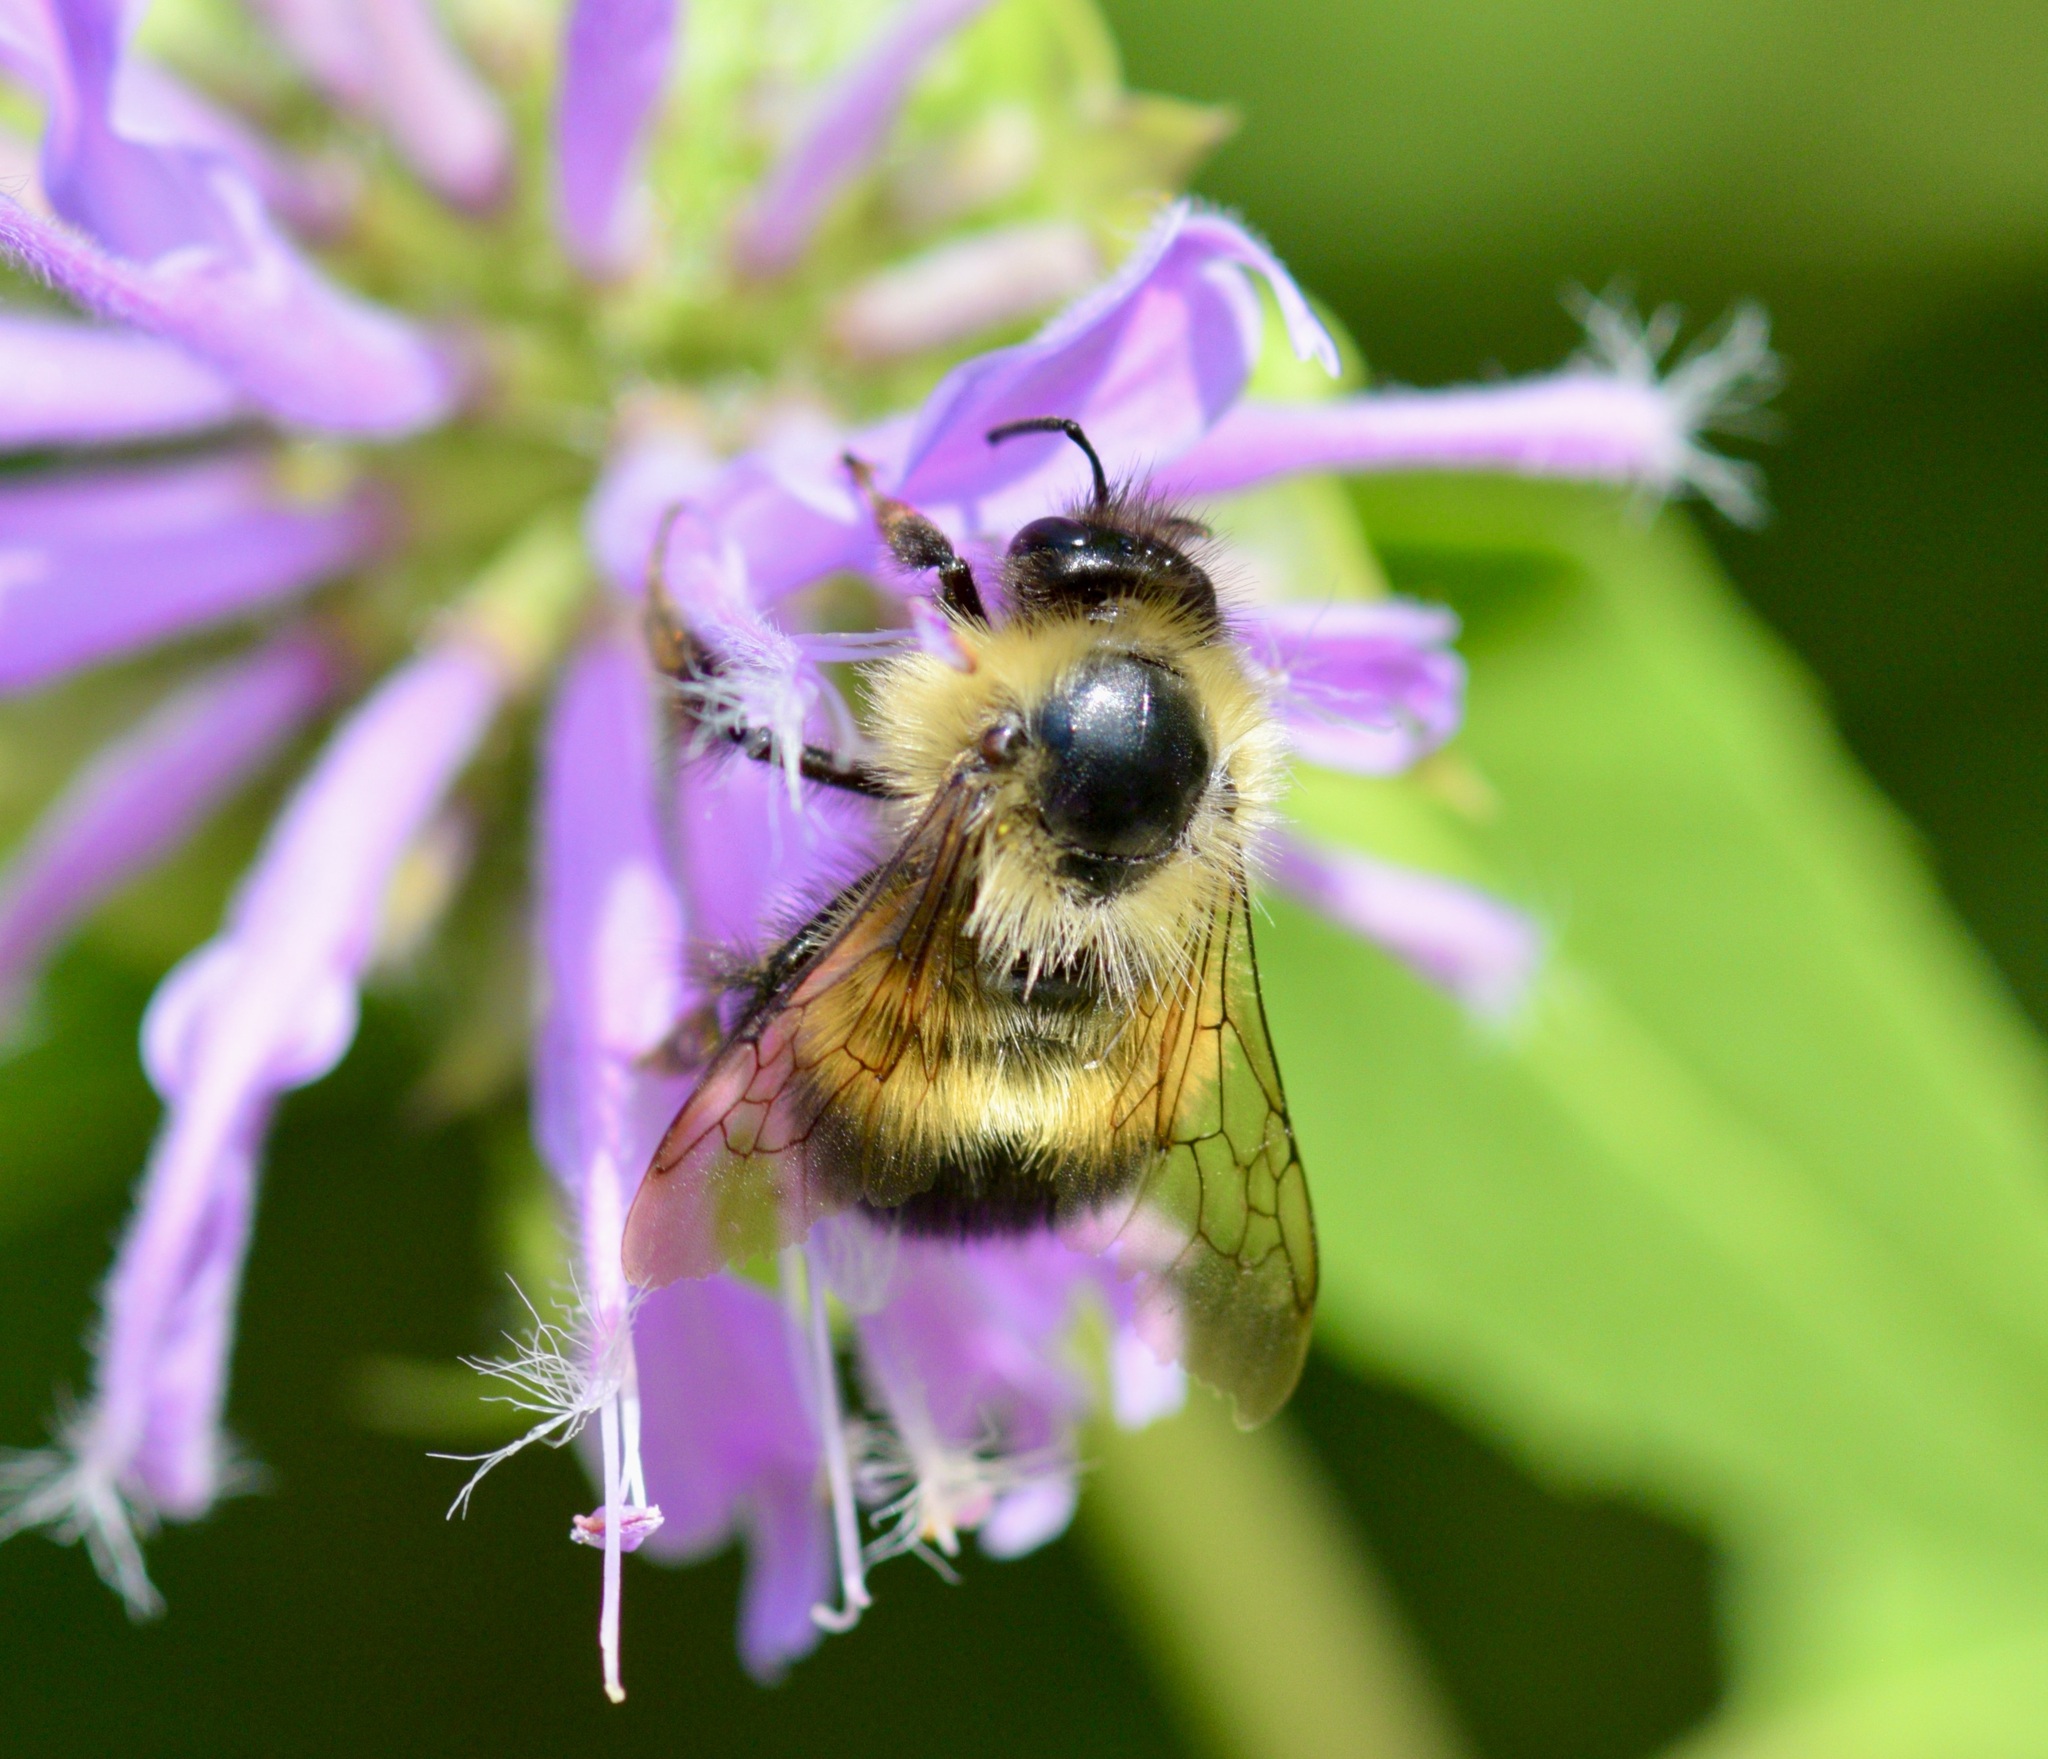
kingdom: Animalia
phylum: Arthropoda
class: Insecta
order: Hymenoptera
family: Apidae
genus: Pyrobombus
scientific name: Pyrobombus
